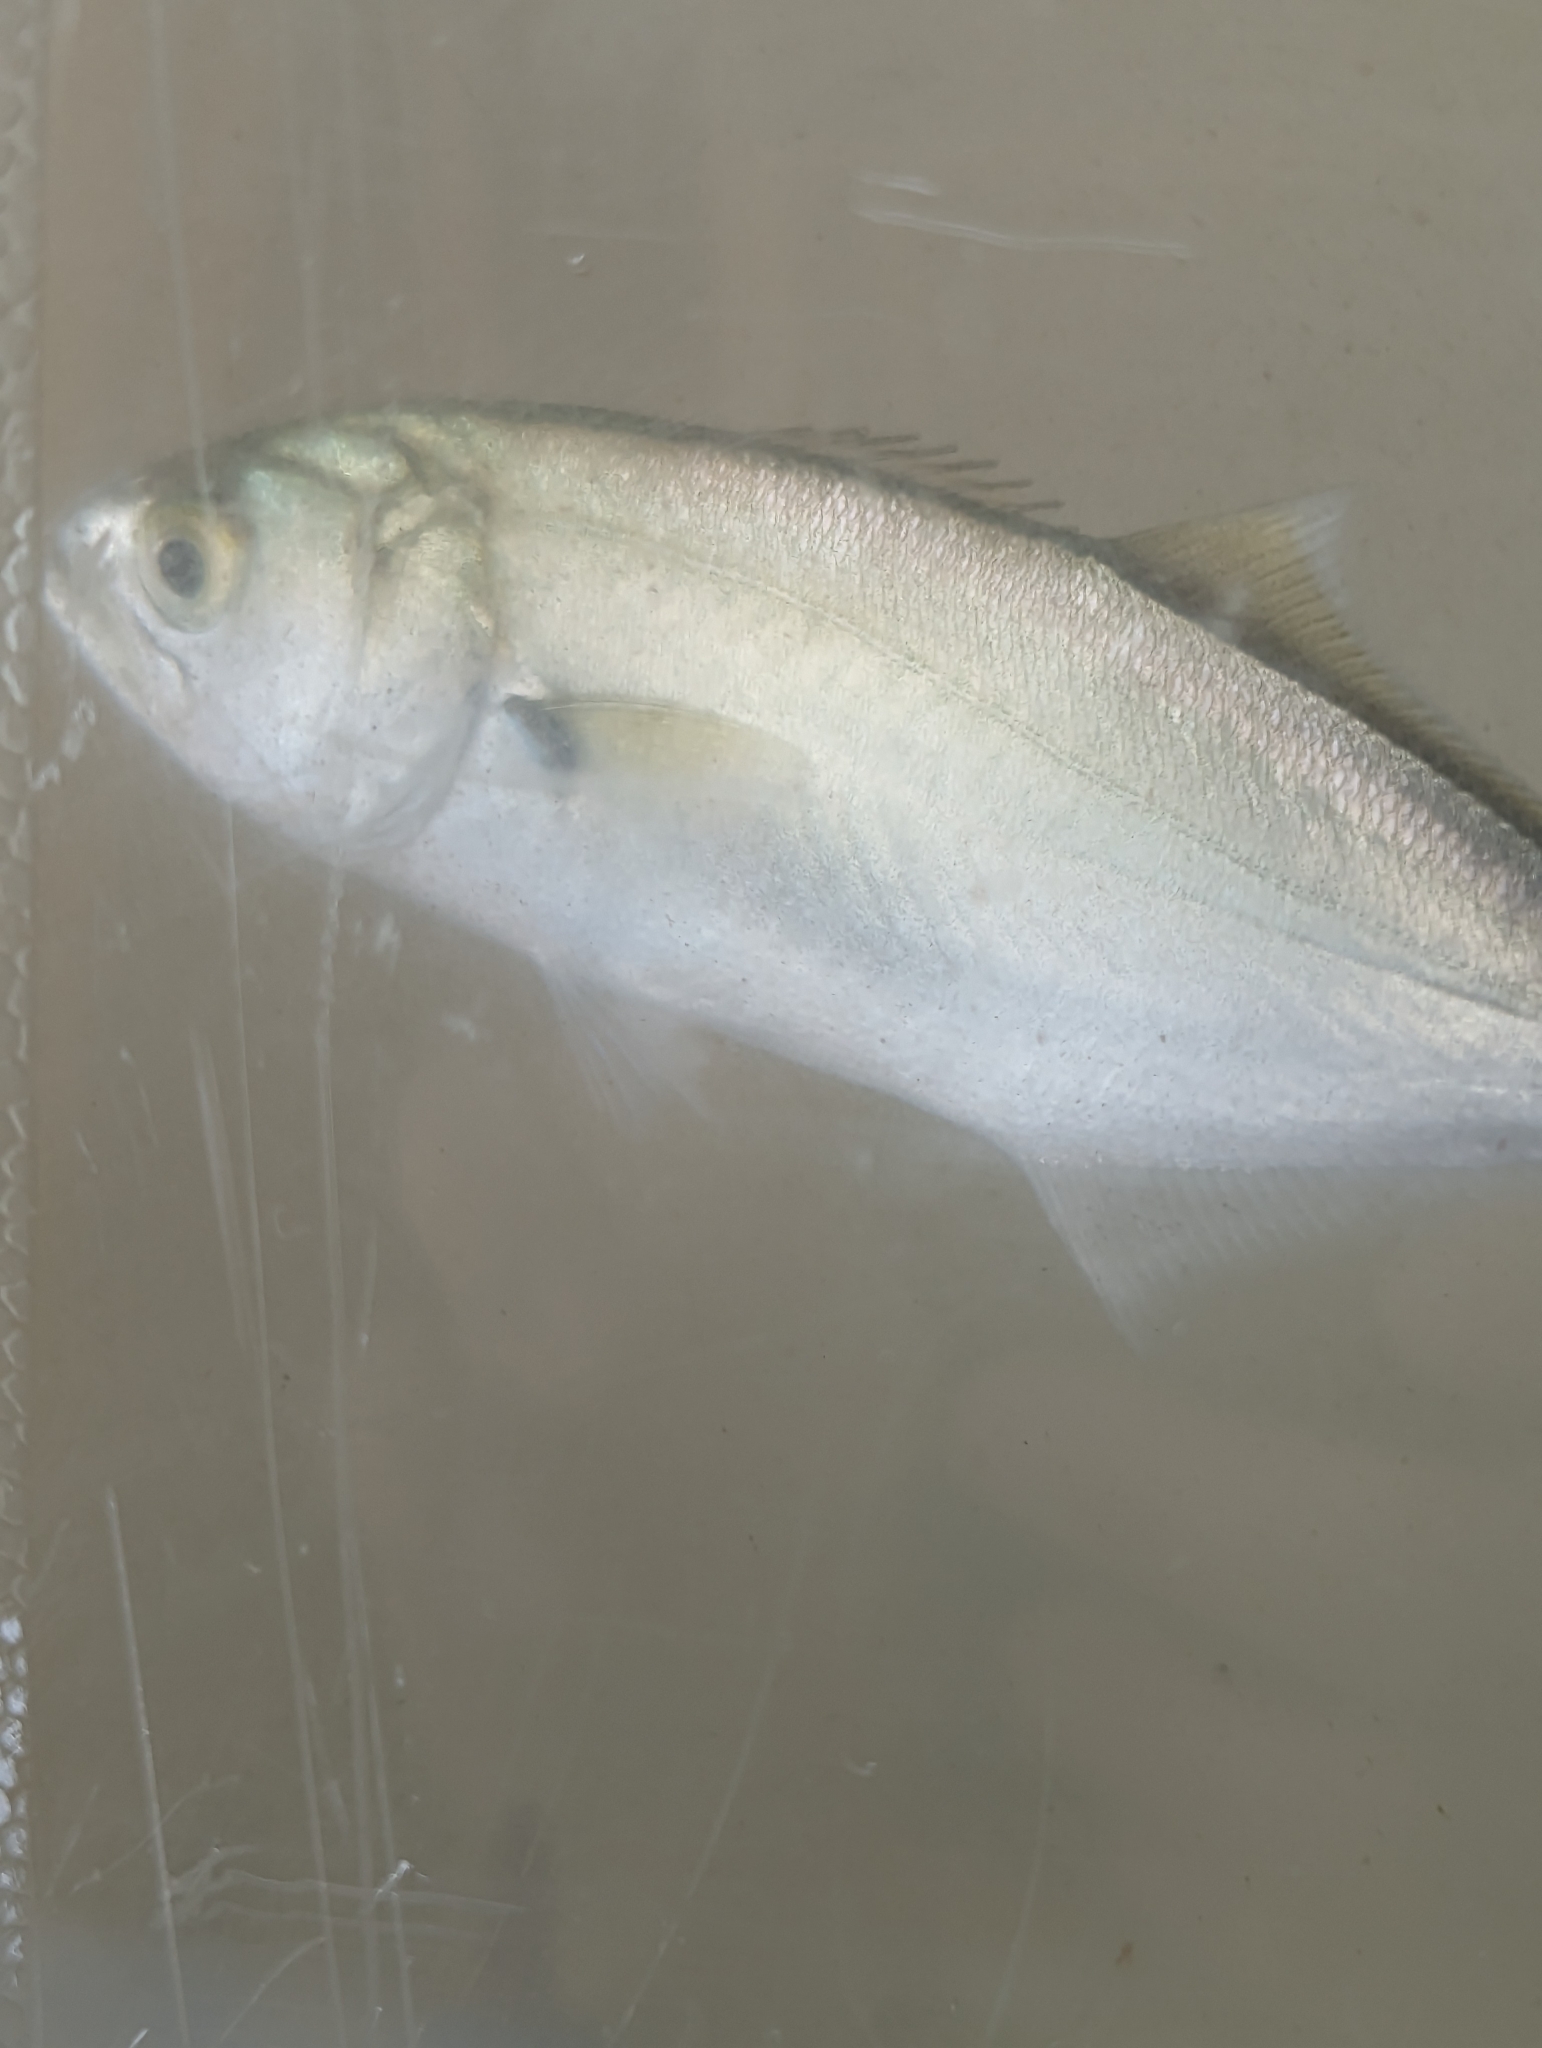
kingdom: Animalia
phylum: Chordata
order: Perciformes
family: Pomatomidae
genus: Pomatomus
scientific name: Pomatomus saltatrix
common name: Bluefish
